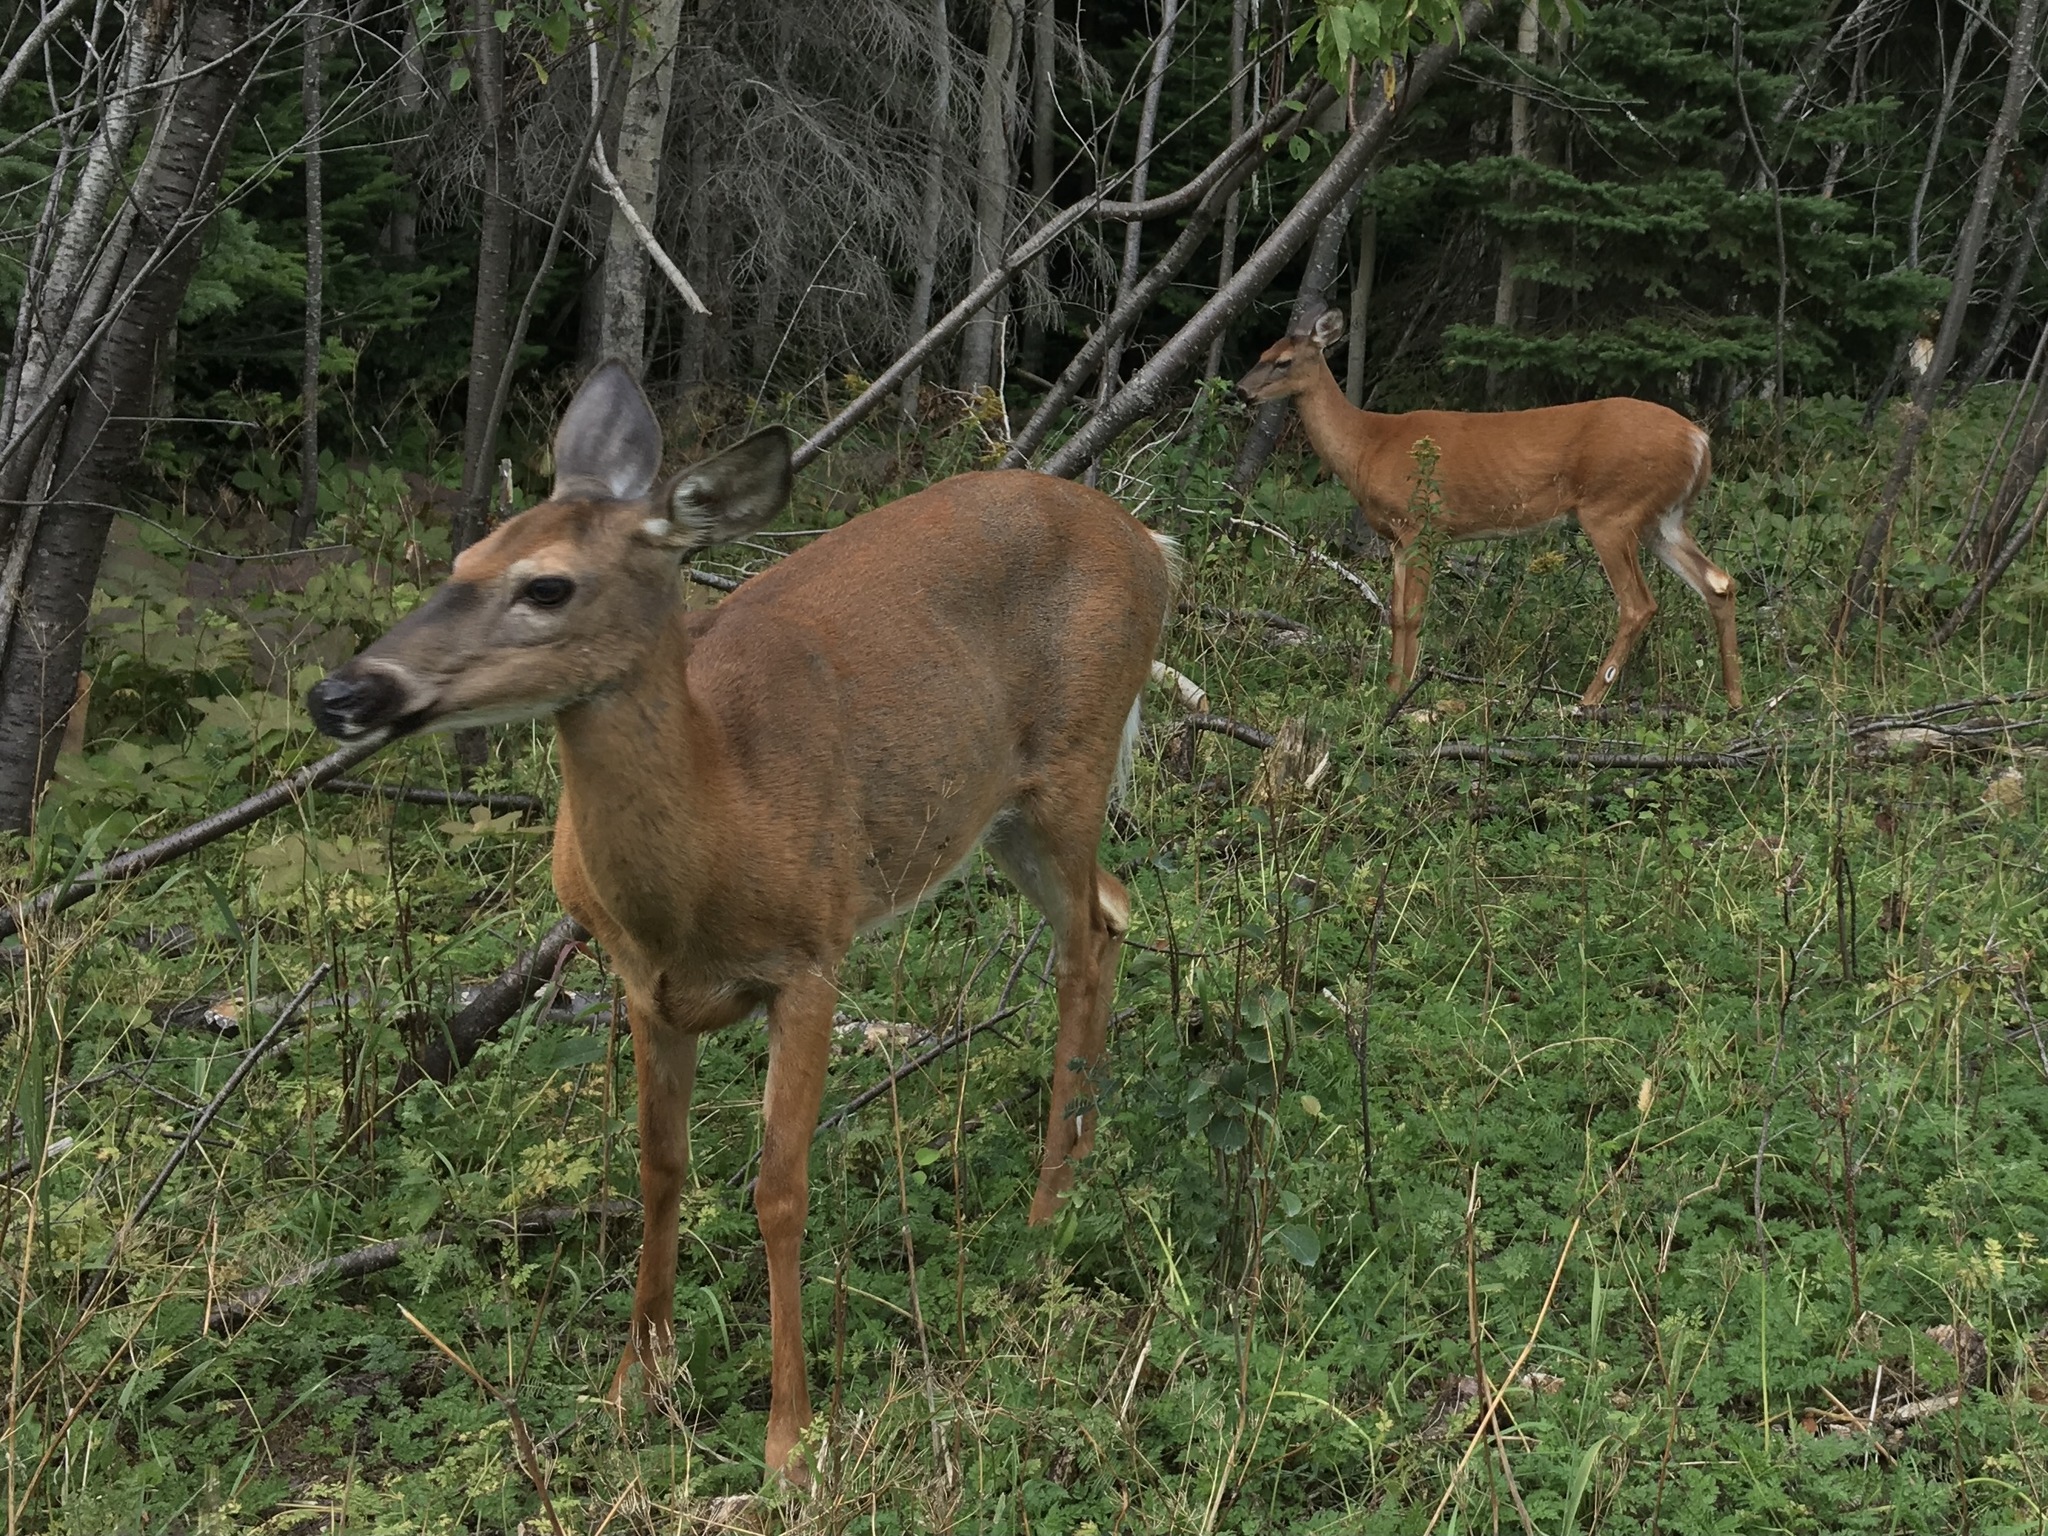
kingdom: Animalia
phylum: Chordata
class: Mammalia
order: Artiodactyla
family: Cervidae
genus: Odocoileus
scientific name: Odocoileus virginianus
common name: White-tailed deer
